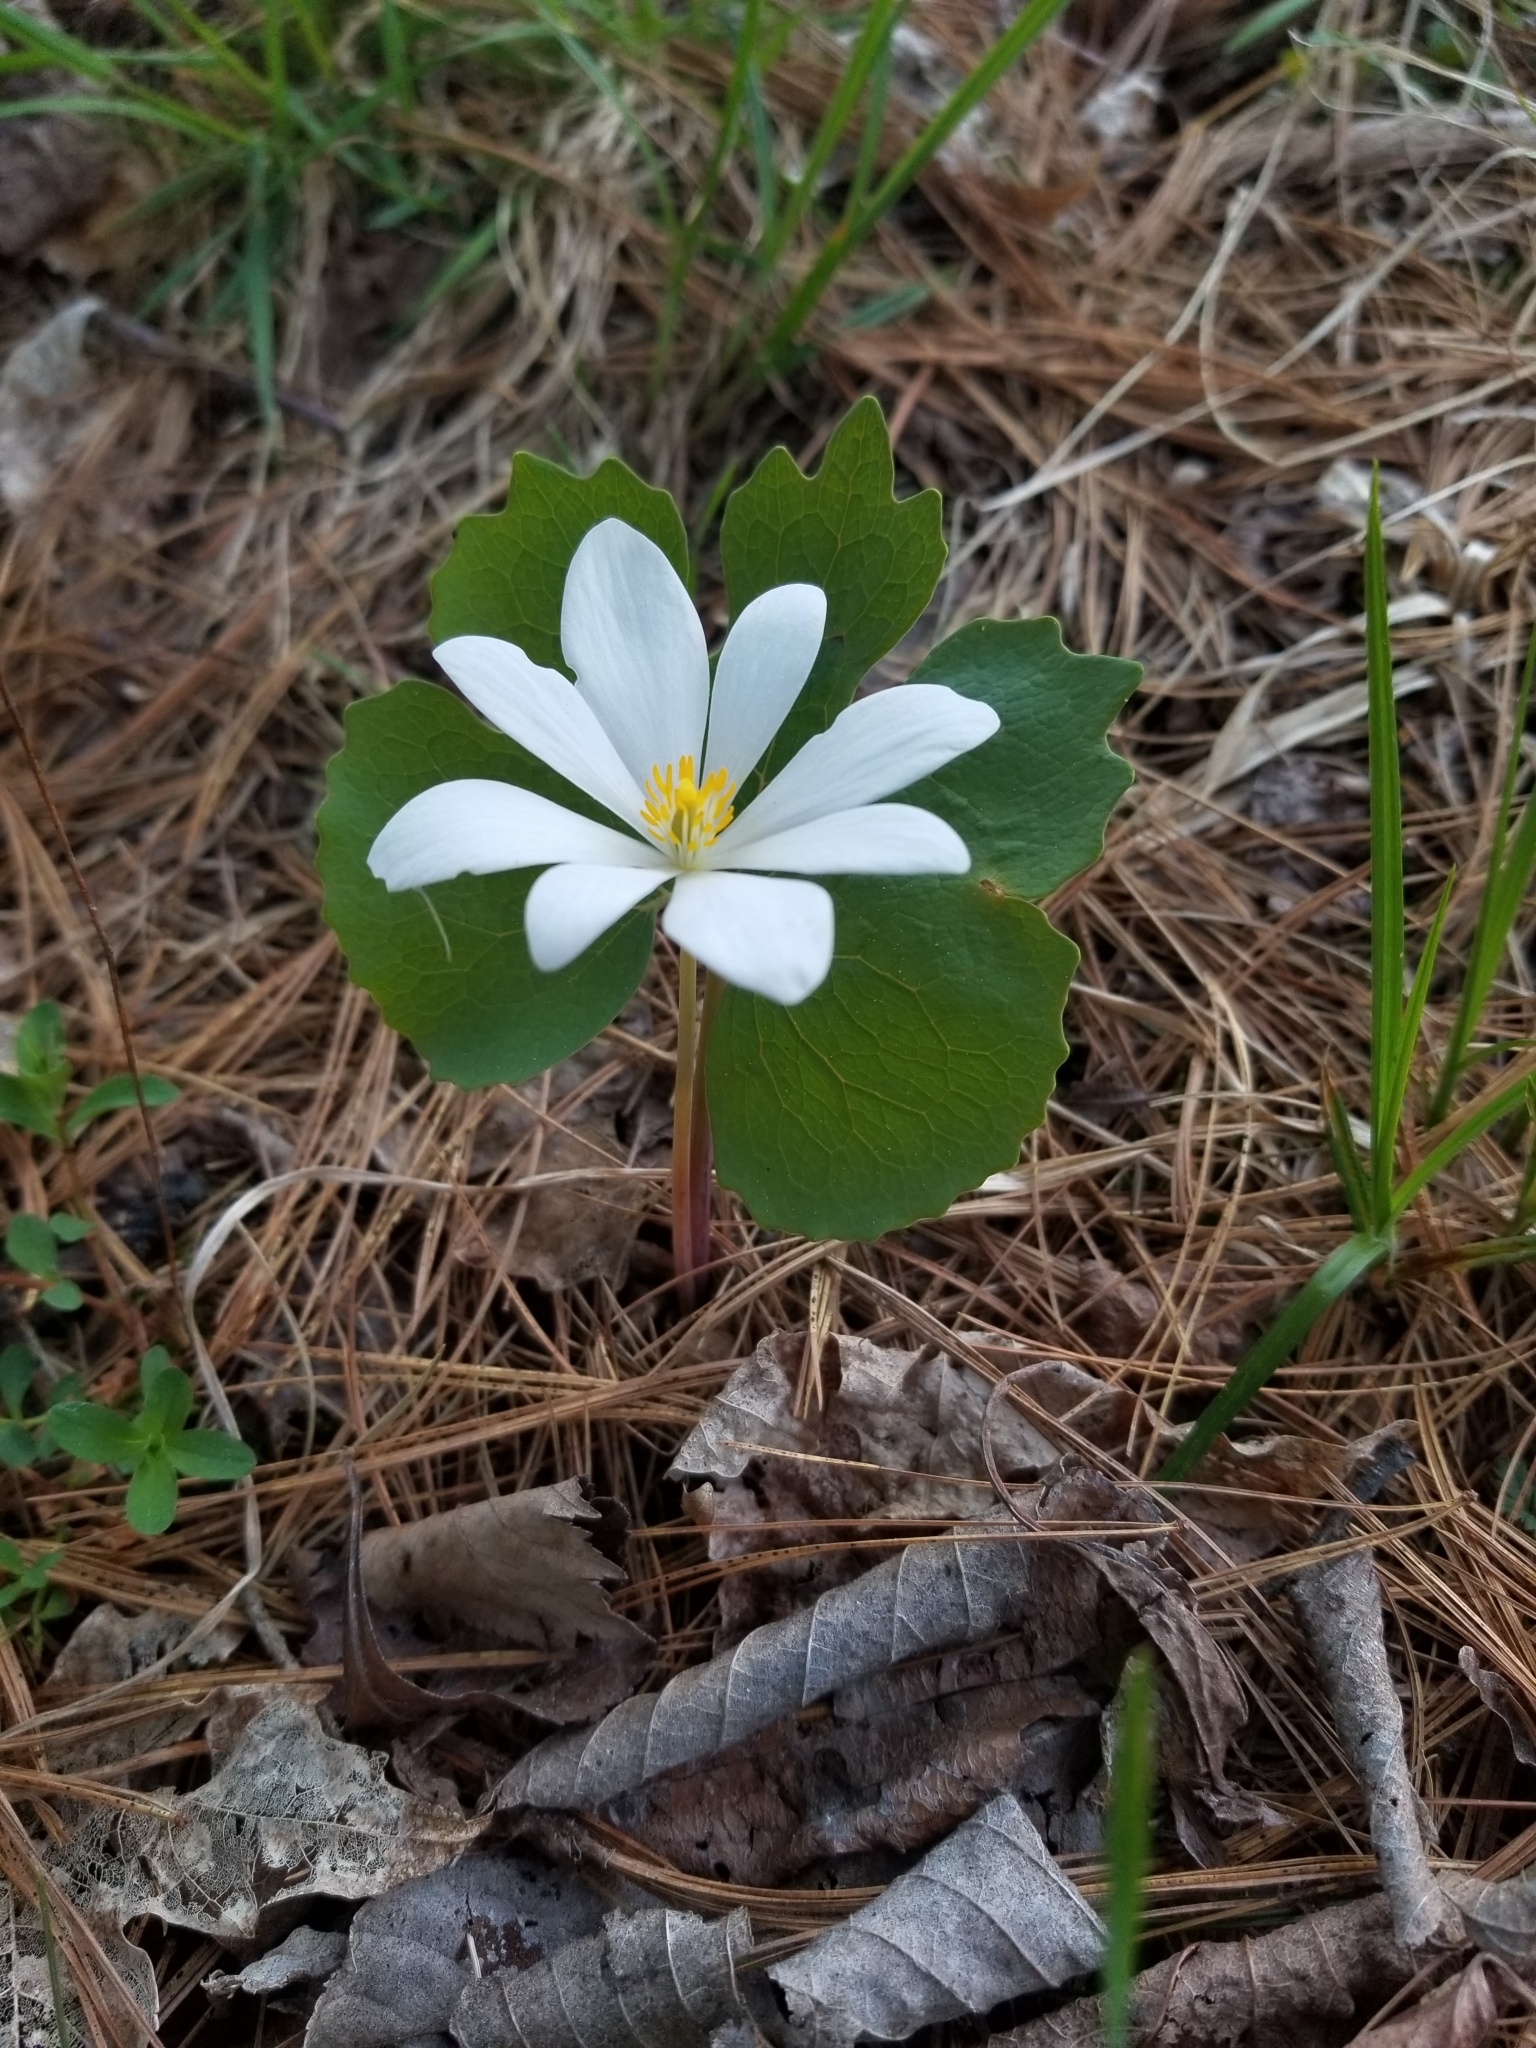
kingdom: Plantae
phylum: Tracheophyta
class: Magnoliopsida
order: Ranunculales
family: Papaveraceae
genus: Sanguinaria
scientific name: Sanguinaria canadensis
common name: Bloodroot
